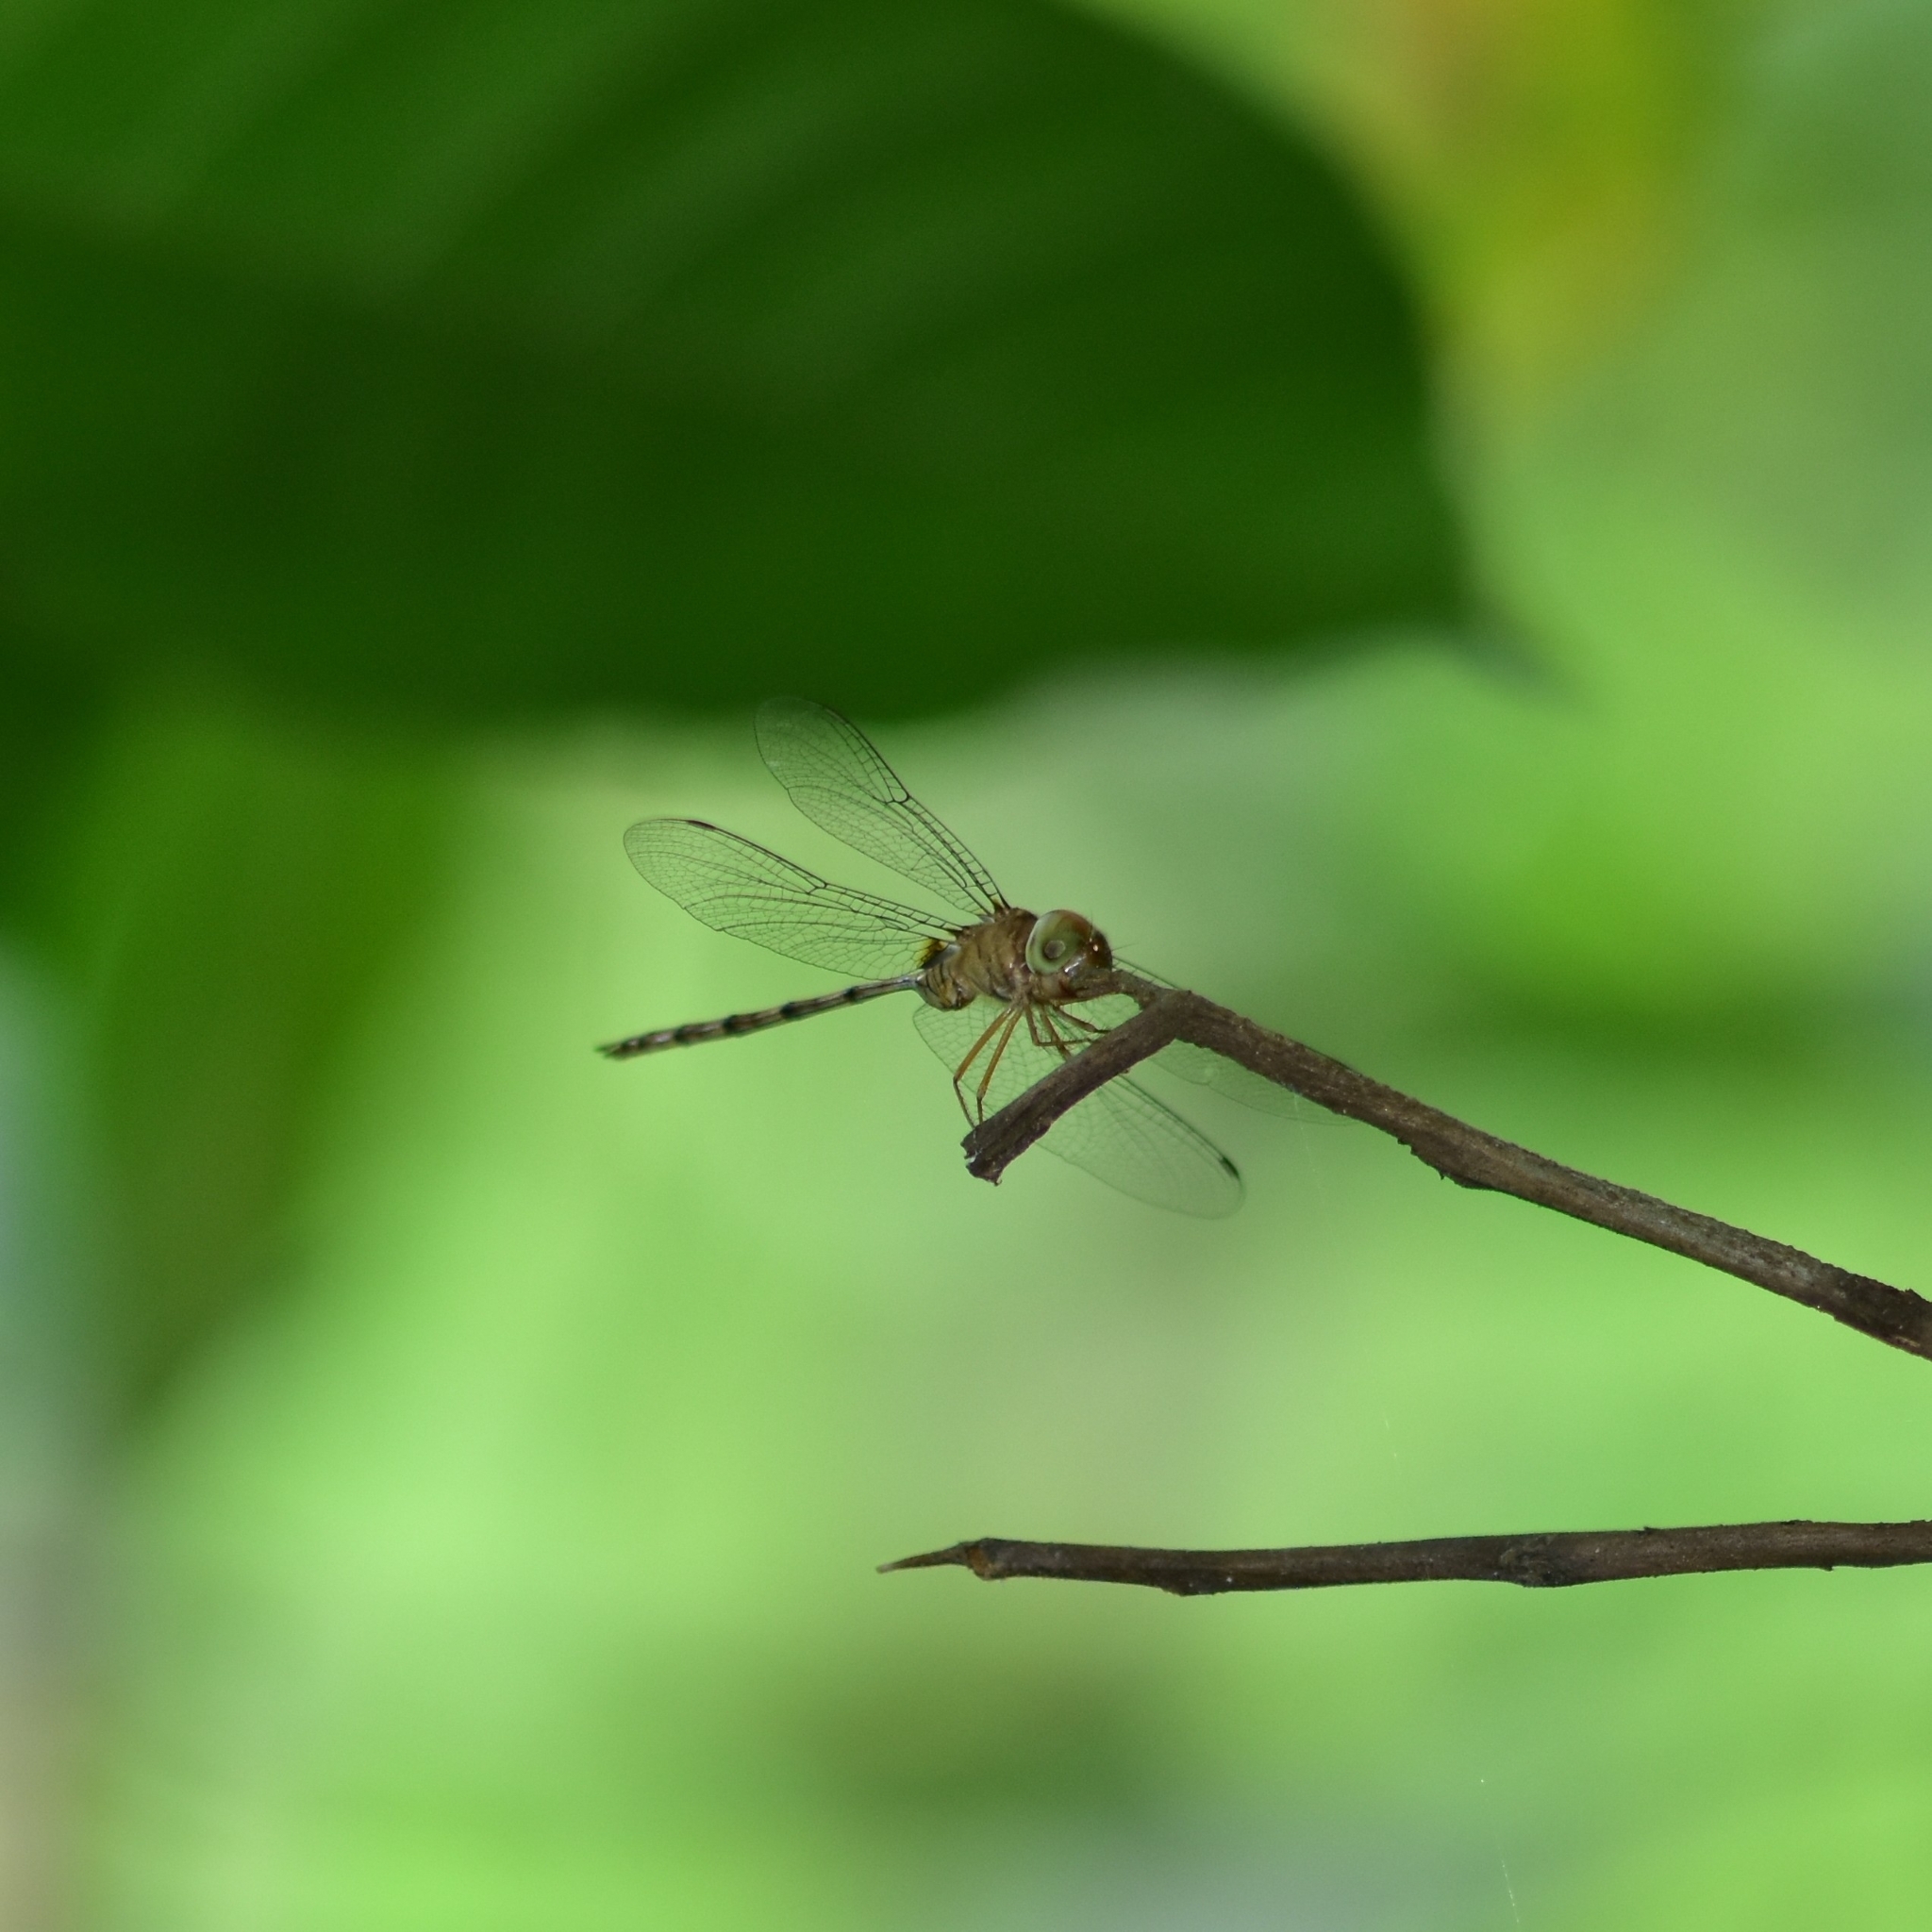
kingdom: Animalia
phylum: Arthropoda
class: Insecta
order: Odonata
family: Libellulidae
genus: Zyxomma
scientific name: Zyxomma petiolatum
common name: Dingy dusk-darter
